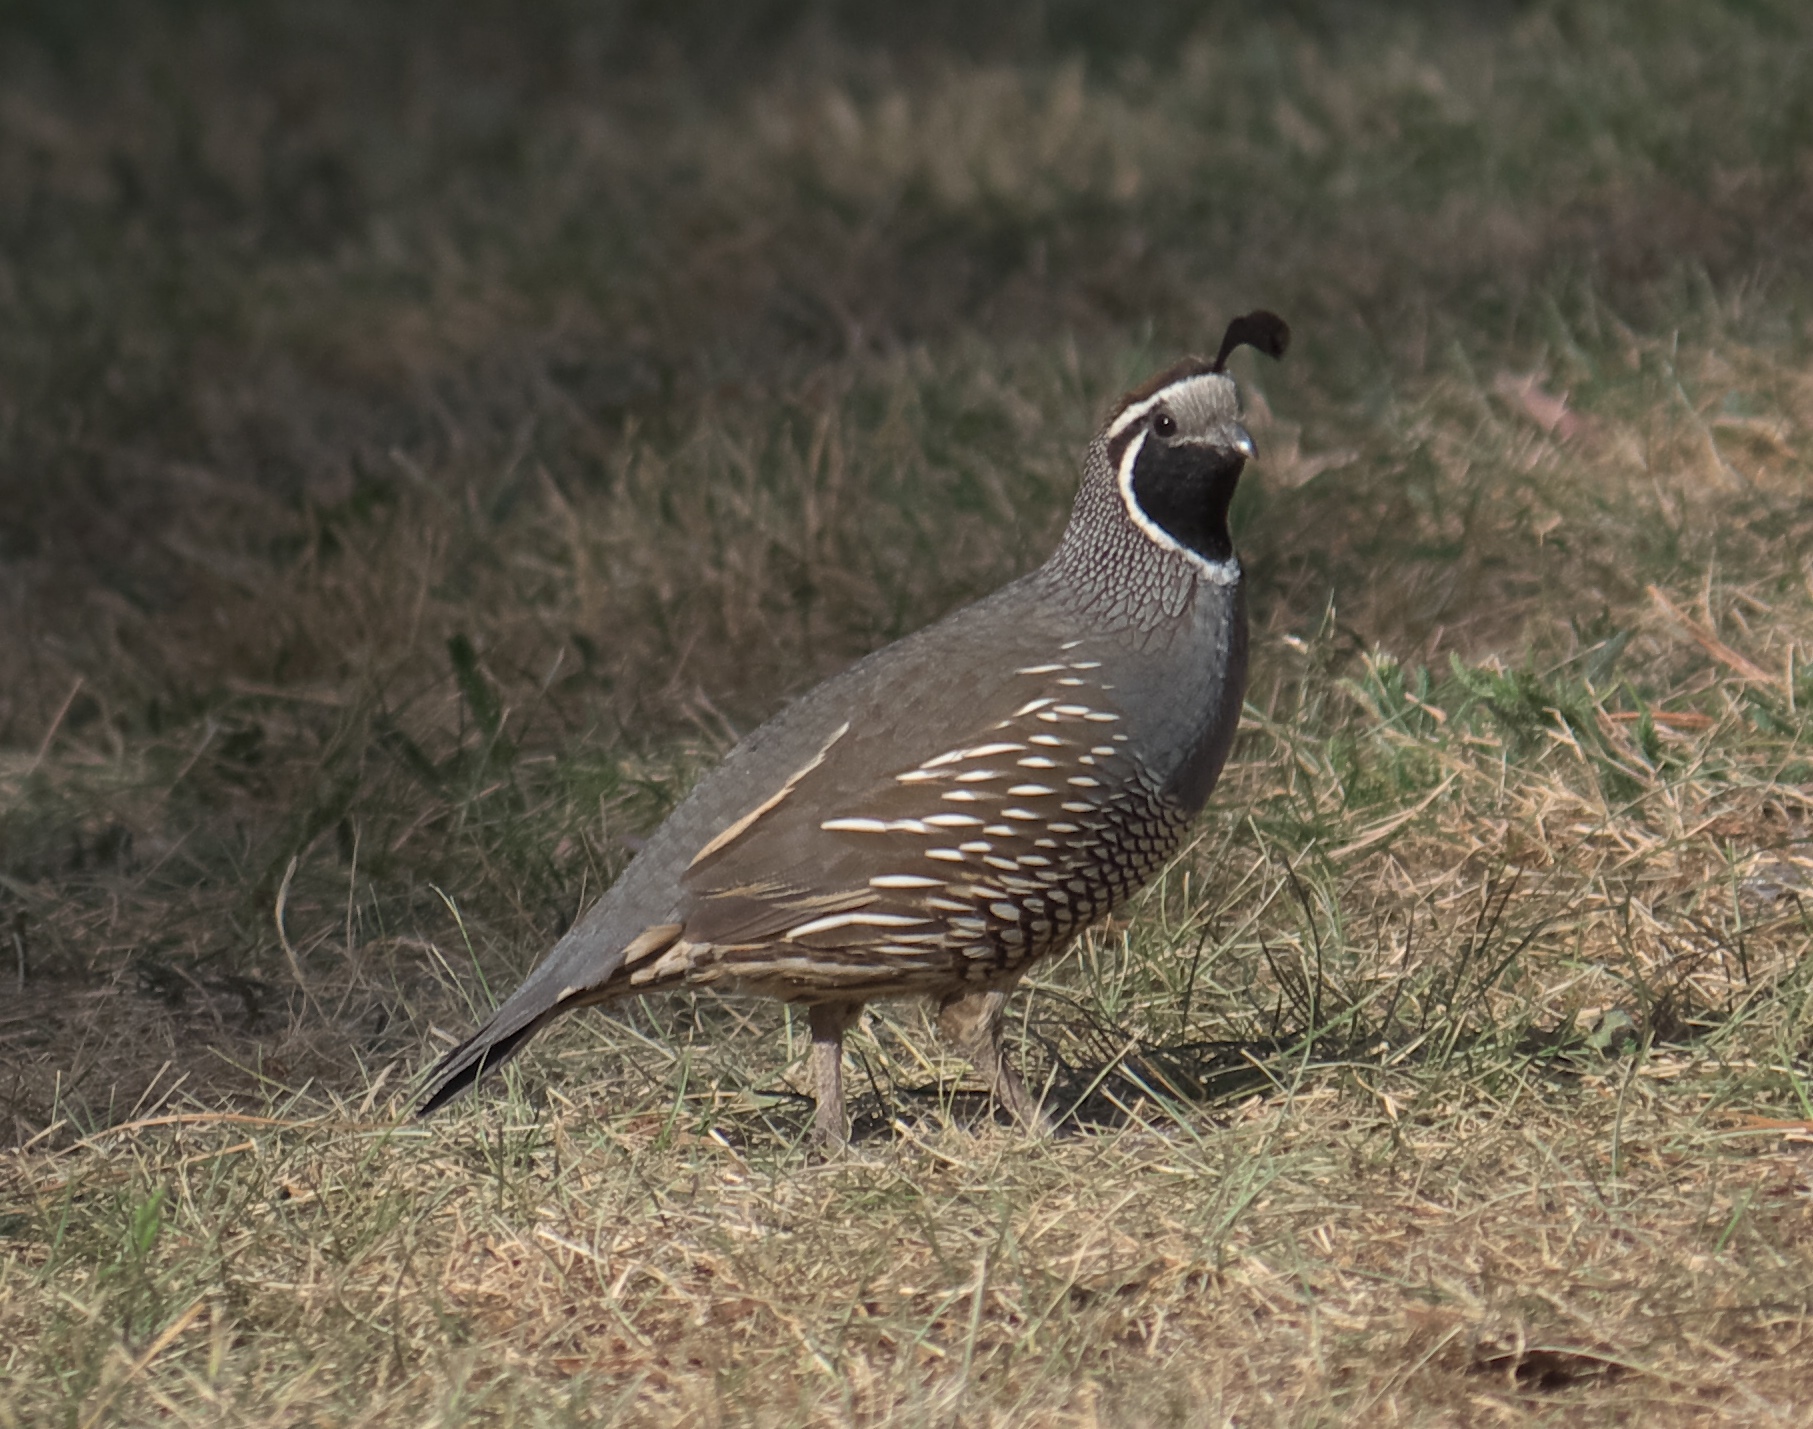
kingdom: Animalia
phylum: Chordata
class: Aves
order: Galliformes
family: Odontophoridae
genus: Callipepla
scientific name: Callipepla californica
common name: California quail
